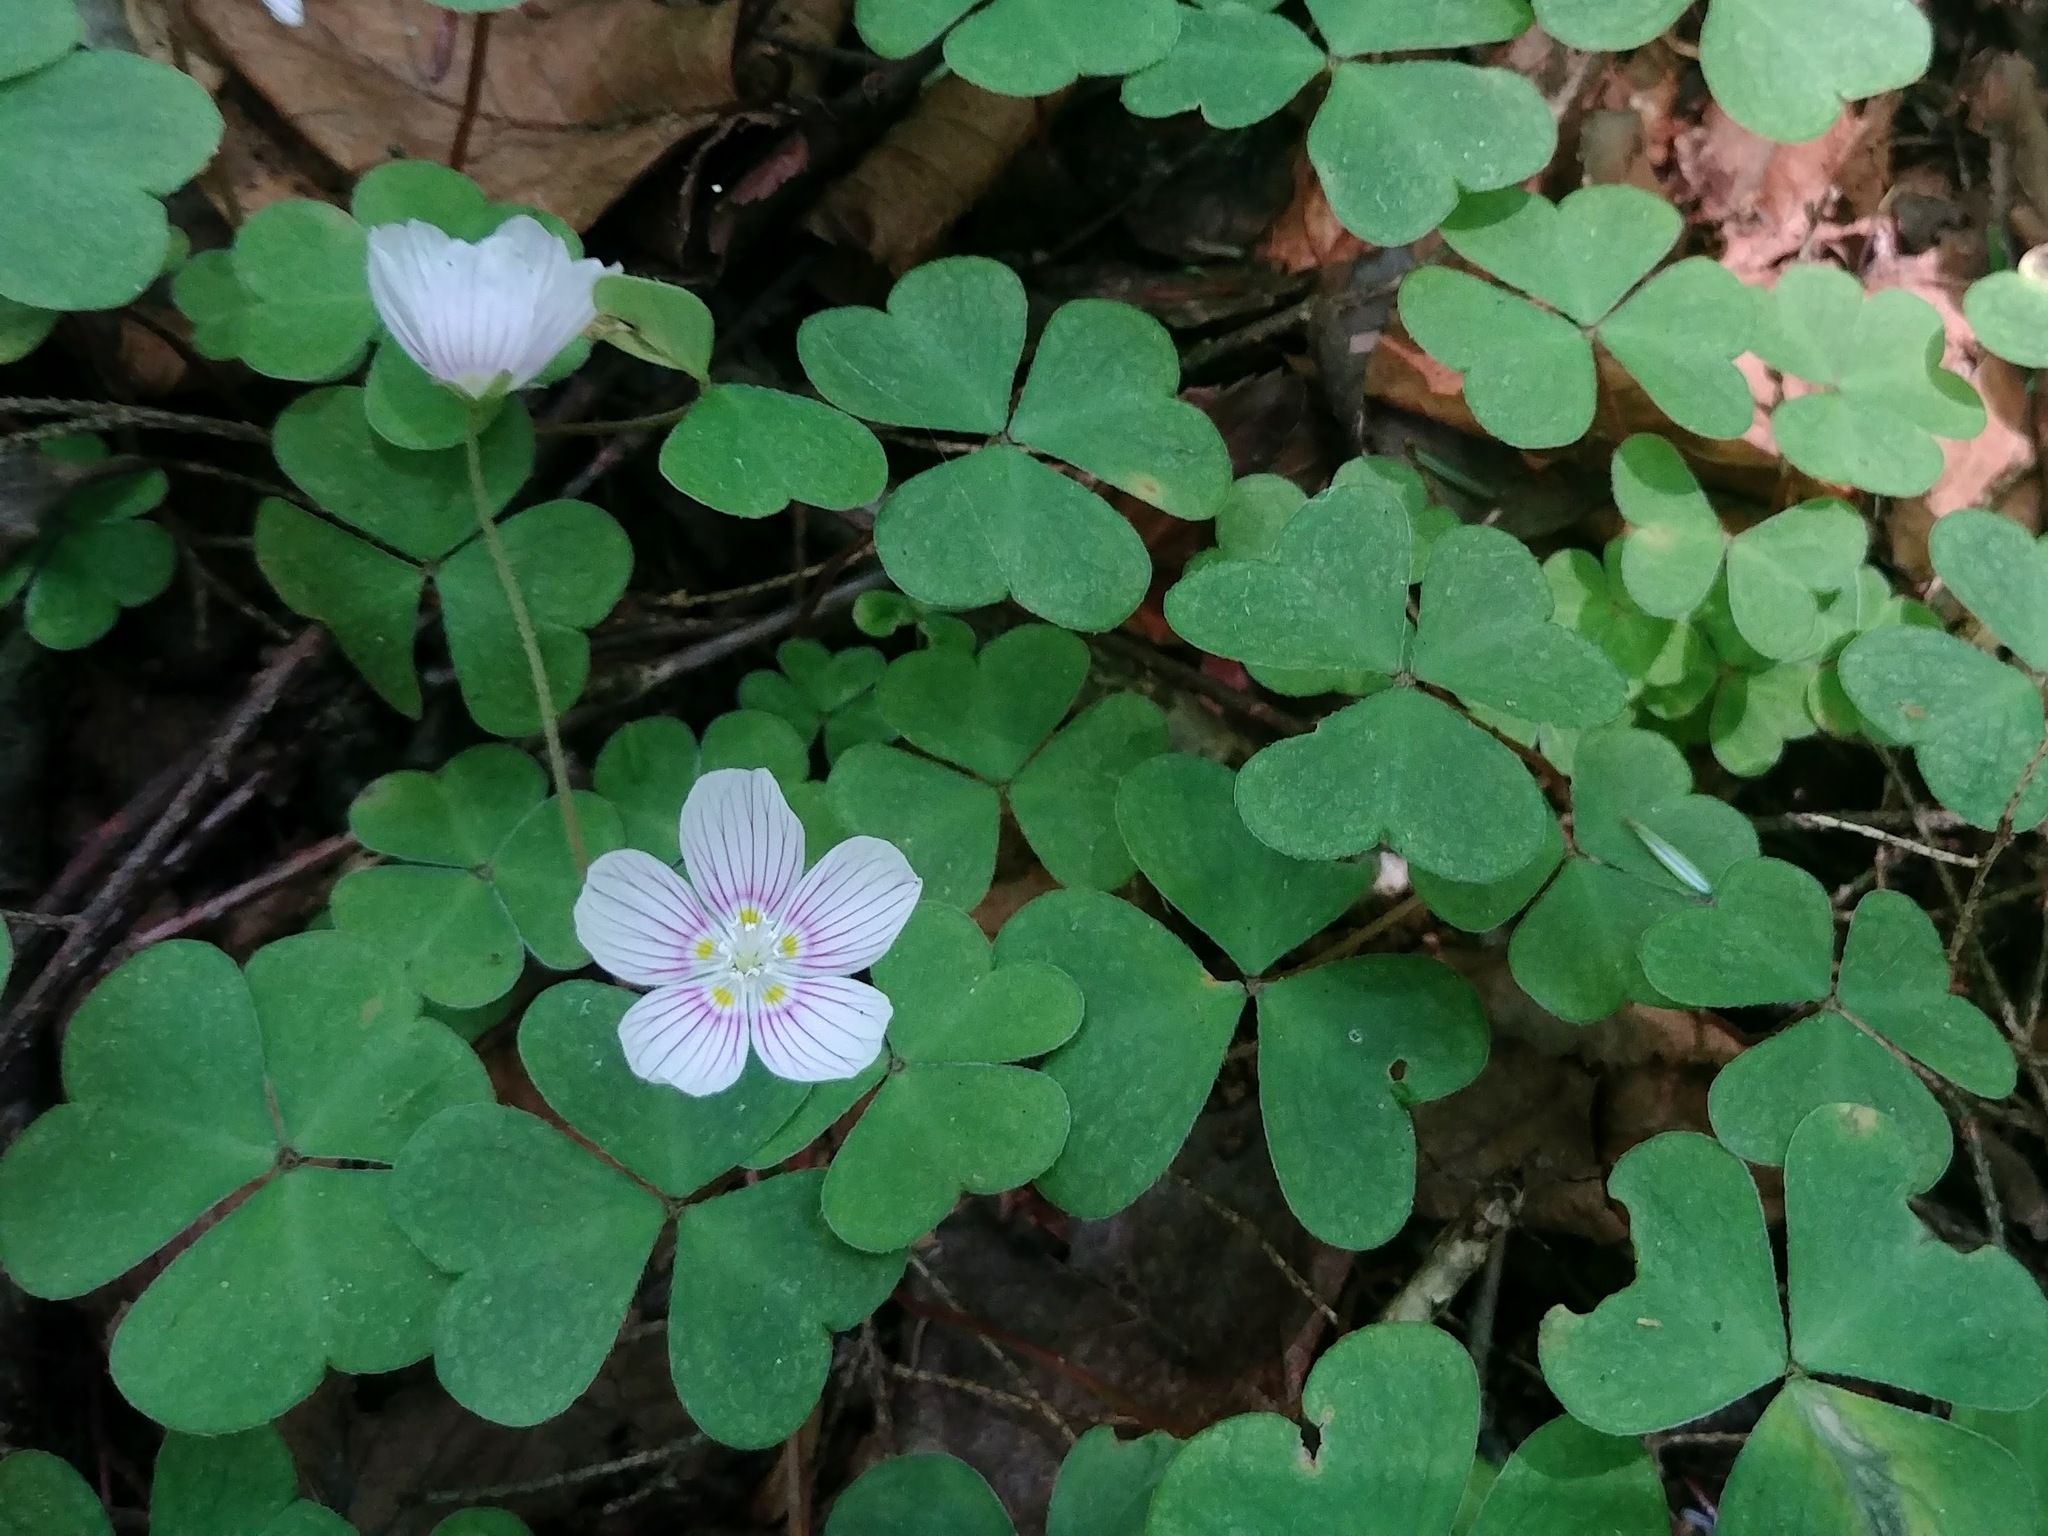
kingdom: Plantae
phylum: Tracheophyta
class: Magnoliopsida
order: Oxalidales
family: Oxalidaceae
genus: Oxalis
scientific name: Oxalis montana
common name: American wood-sorrel
